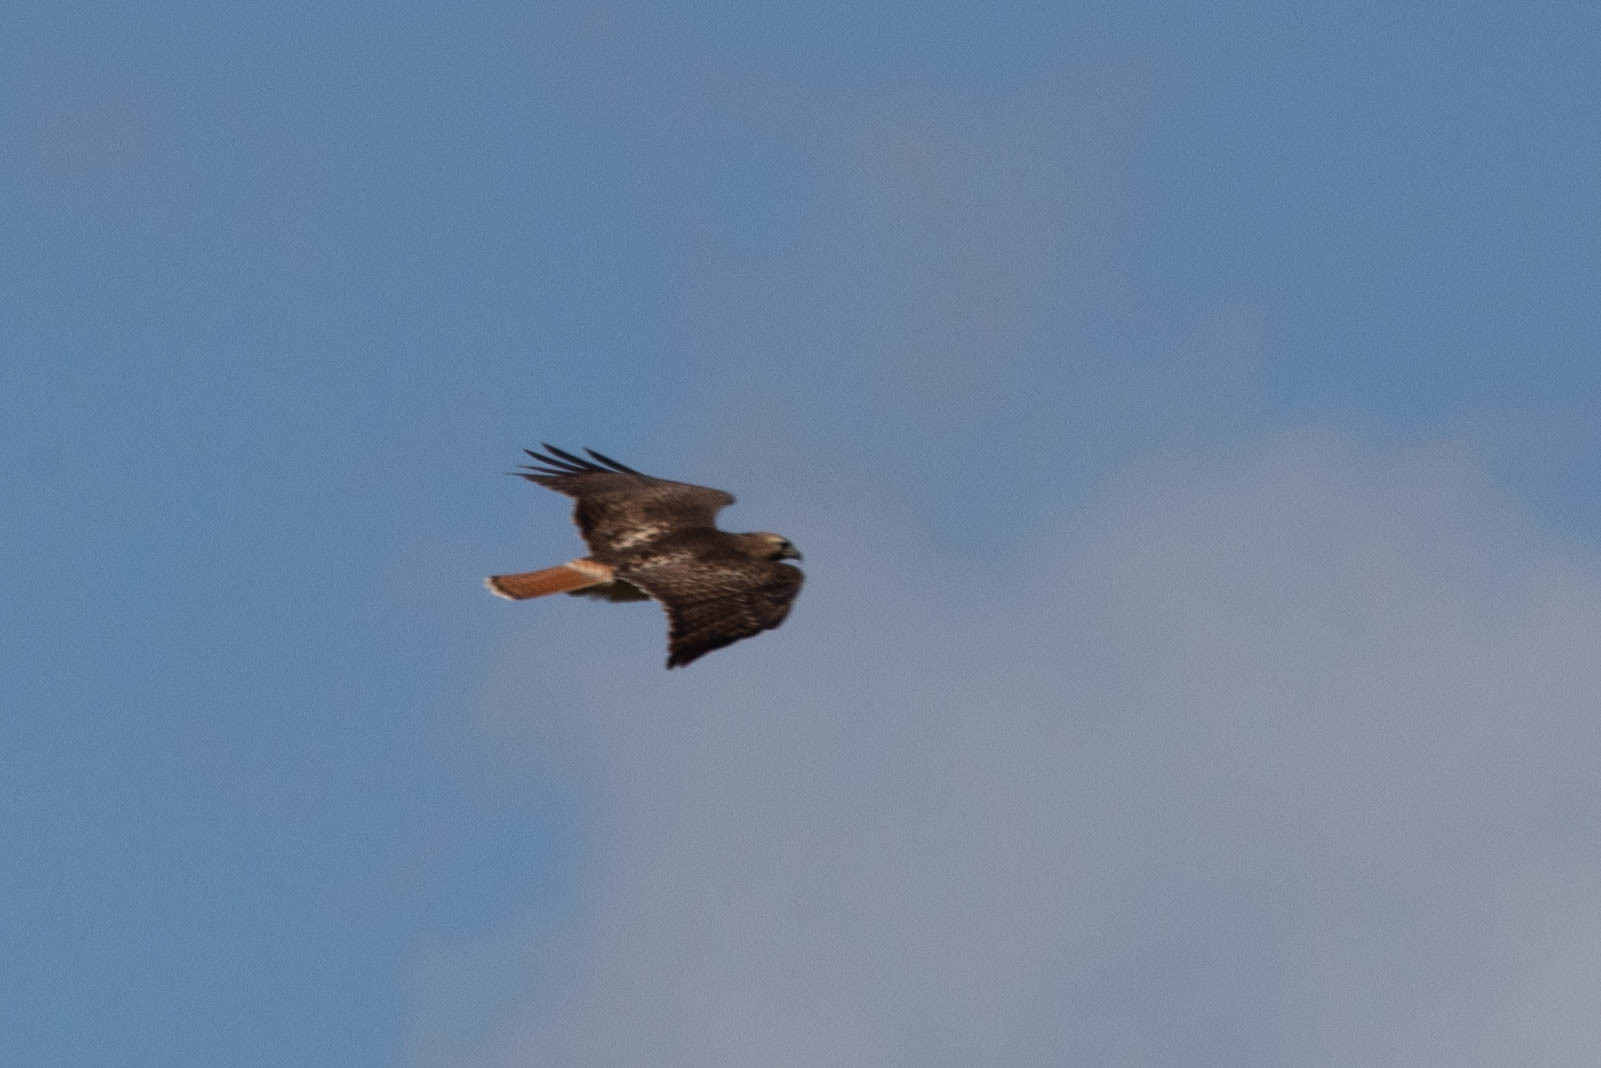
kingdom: Animalia
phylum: Chordata
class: Aves
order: Accipitriformes
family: Accipitridae
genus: Buteo
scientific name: Buteo jamaicensis
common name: Red-tailed hawk
